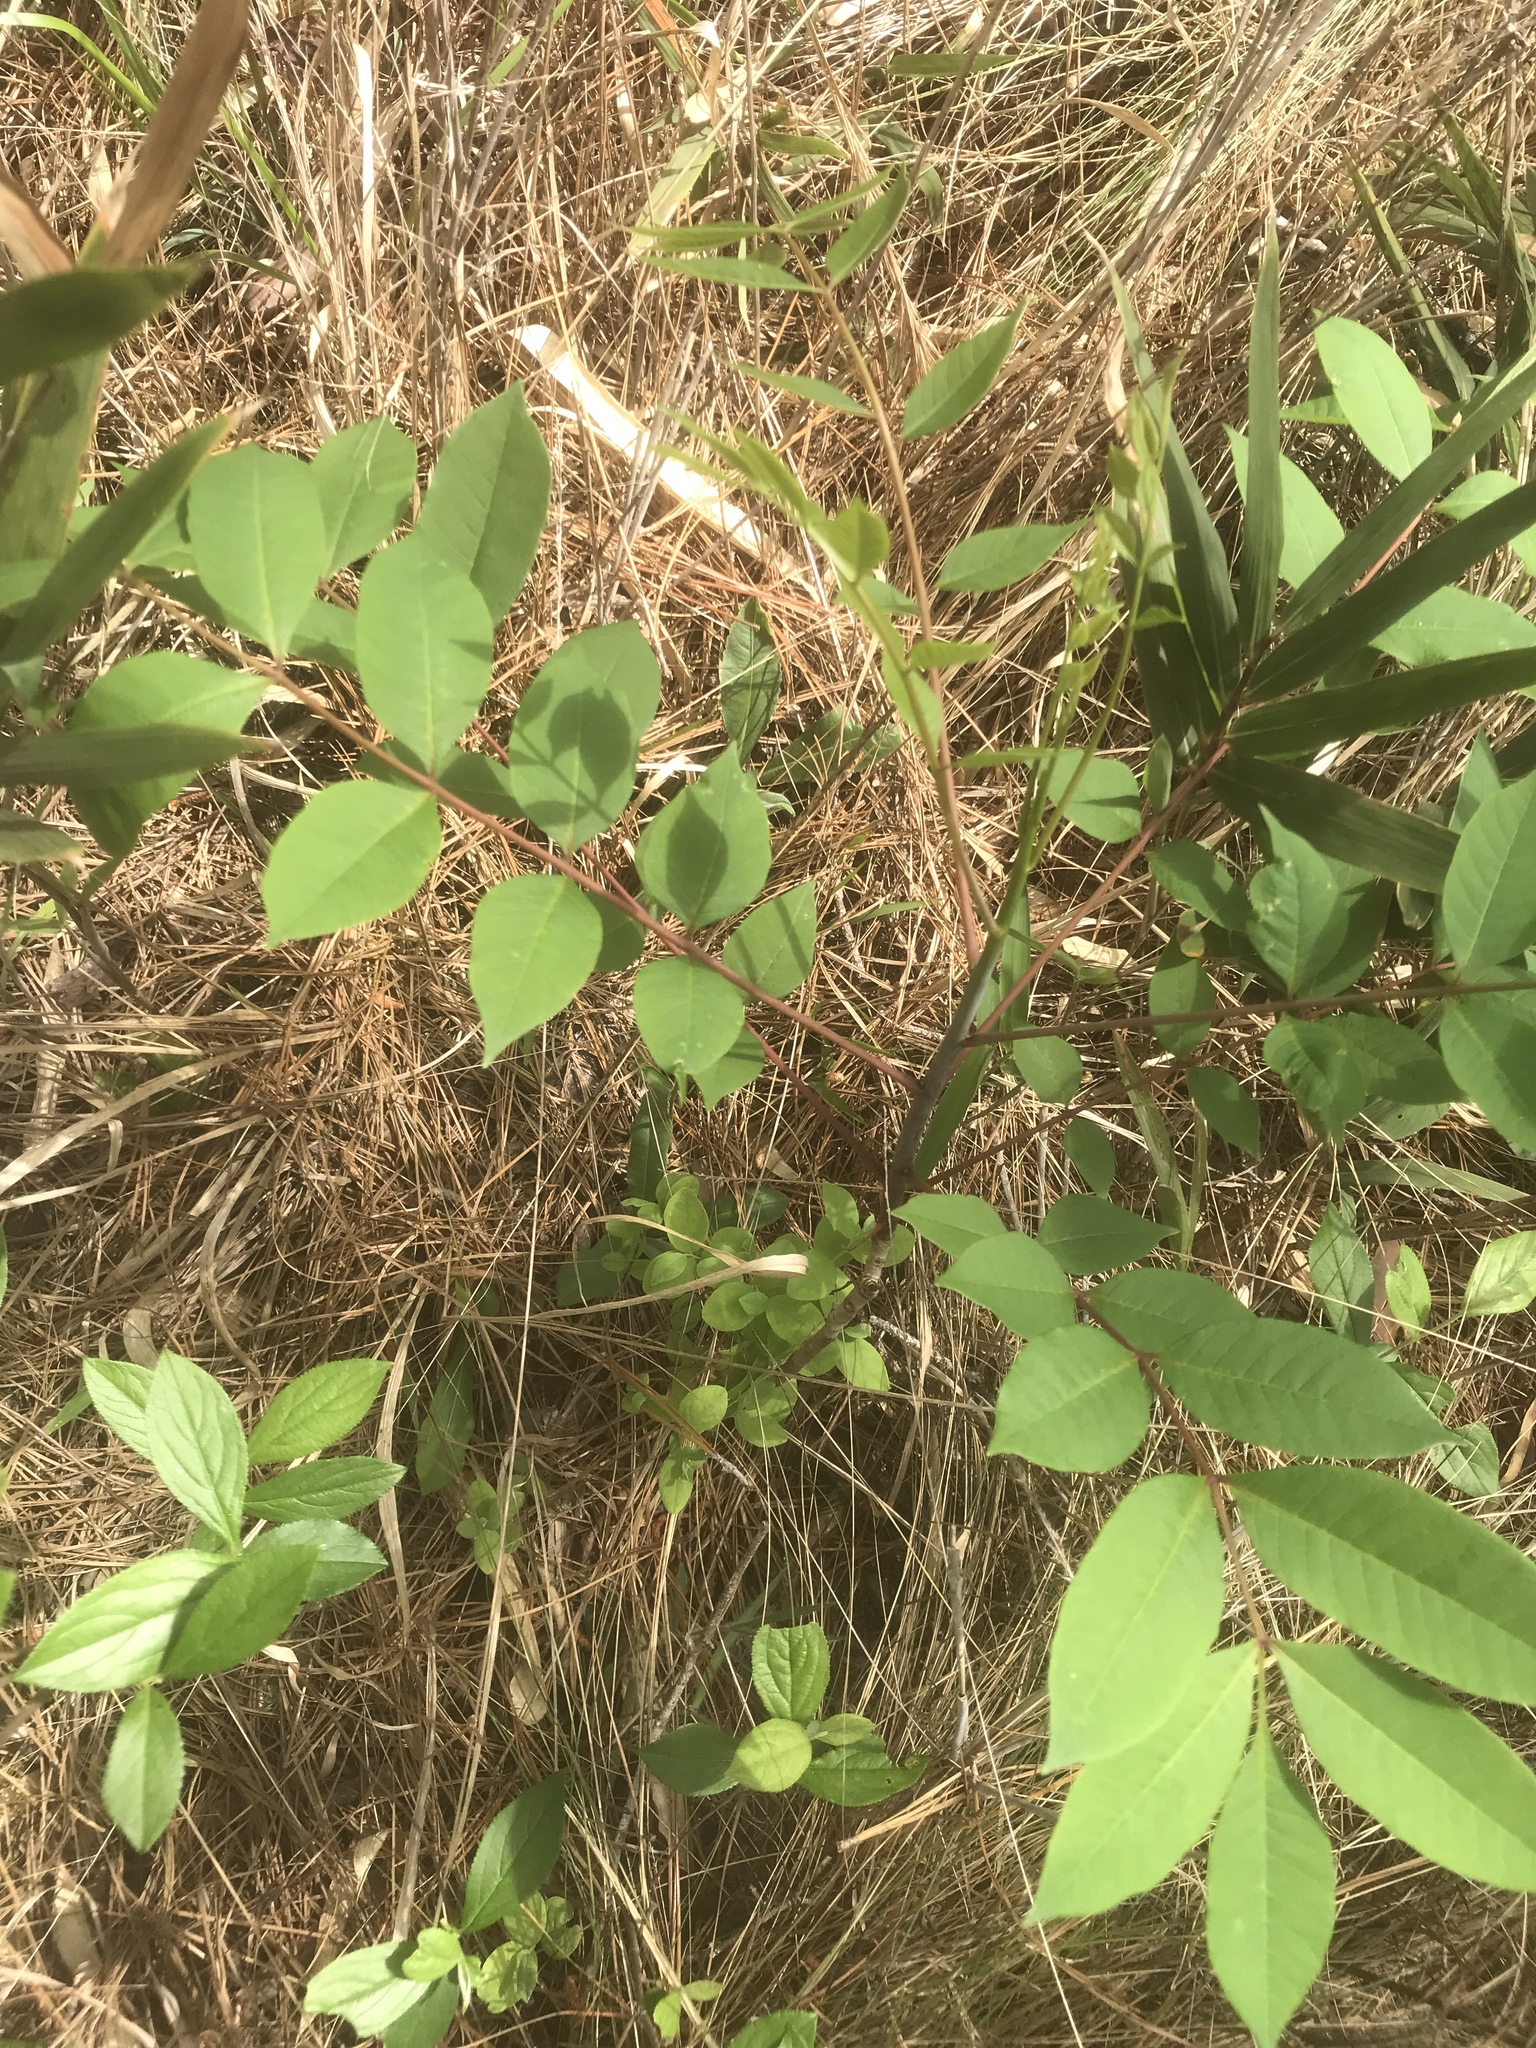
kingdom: Plantae
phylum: Tracheophyta
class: Magnoliopsida
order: Sapindales
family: Anacardiaceae
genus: Toxicodendron
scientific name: Toxicodendron vernix
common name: Poison sumac
